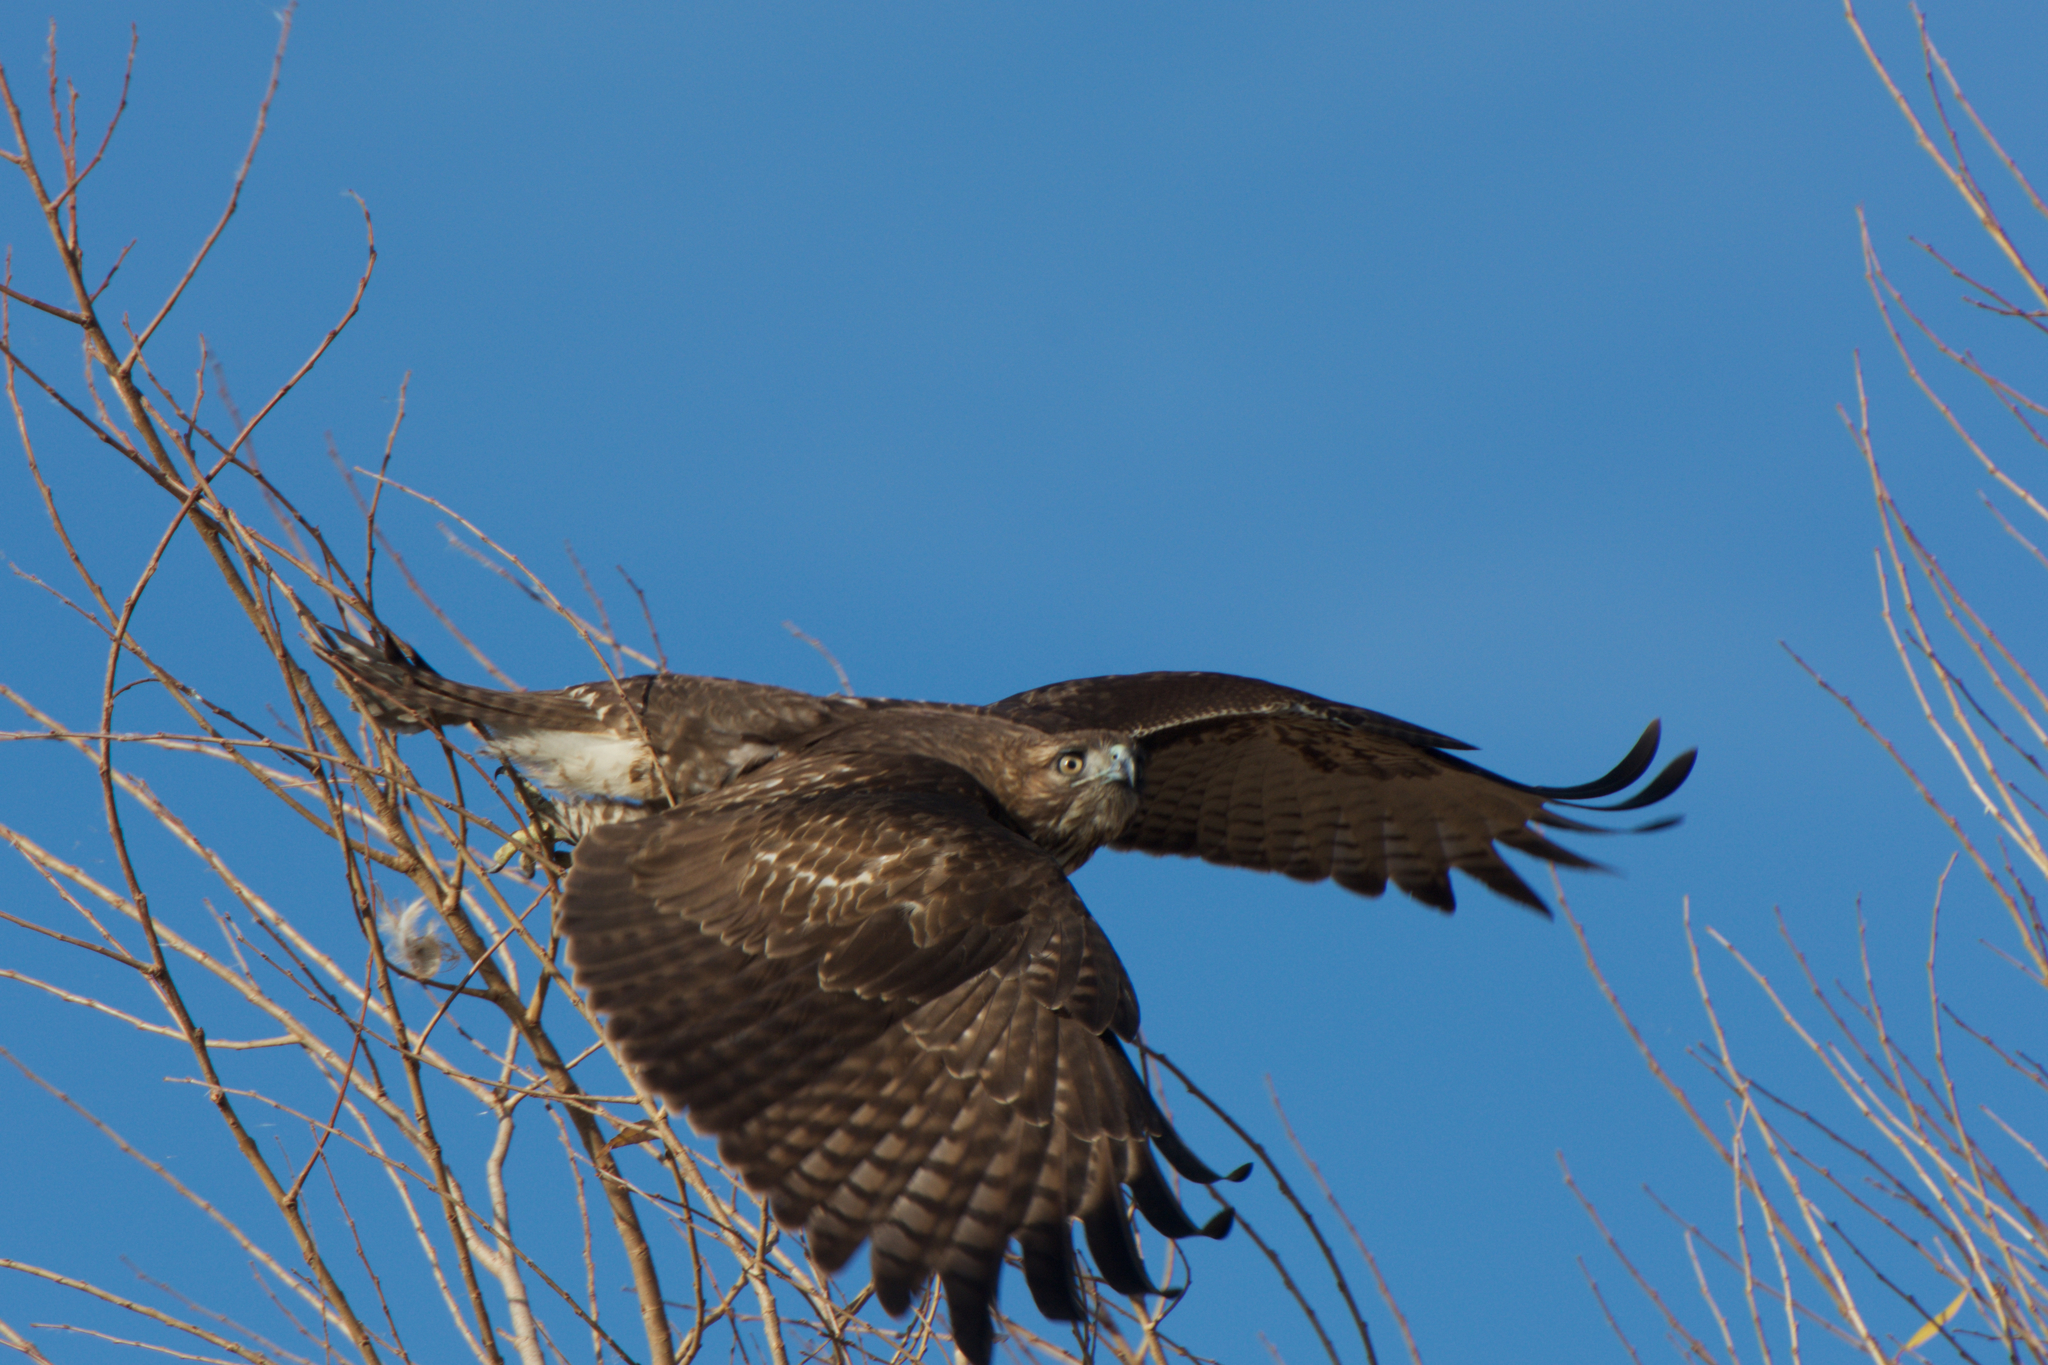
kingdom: Animalia
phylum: Chordata
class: Aves
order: Accipitriformes
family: Accipitridae
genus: Buteo
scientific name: Buteo jamaicensis
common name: Red-tailed hawk
